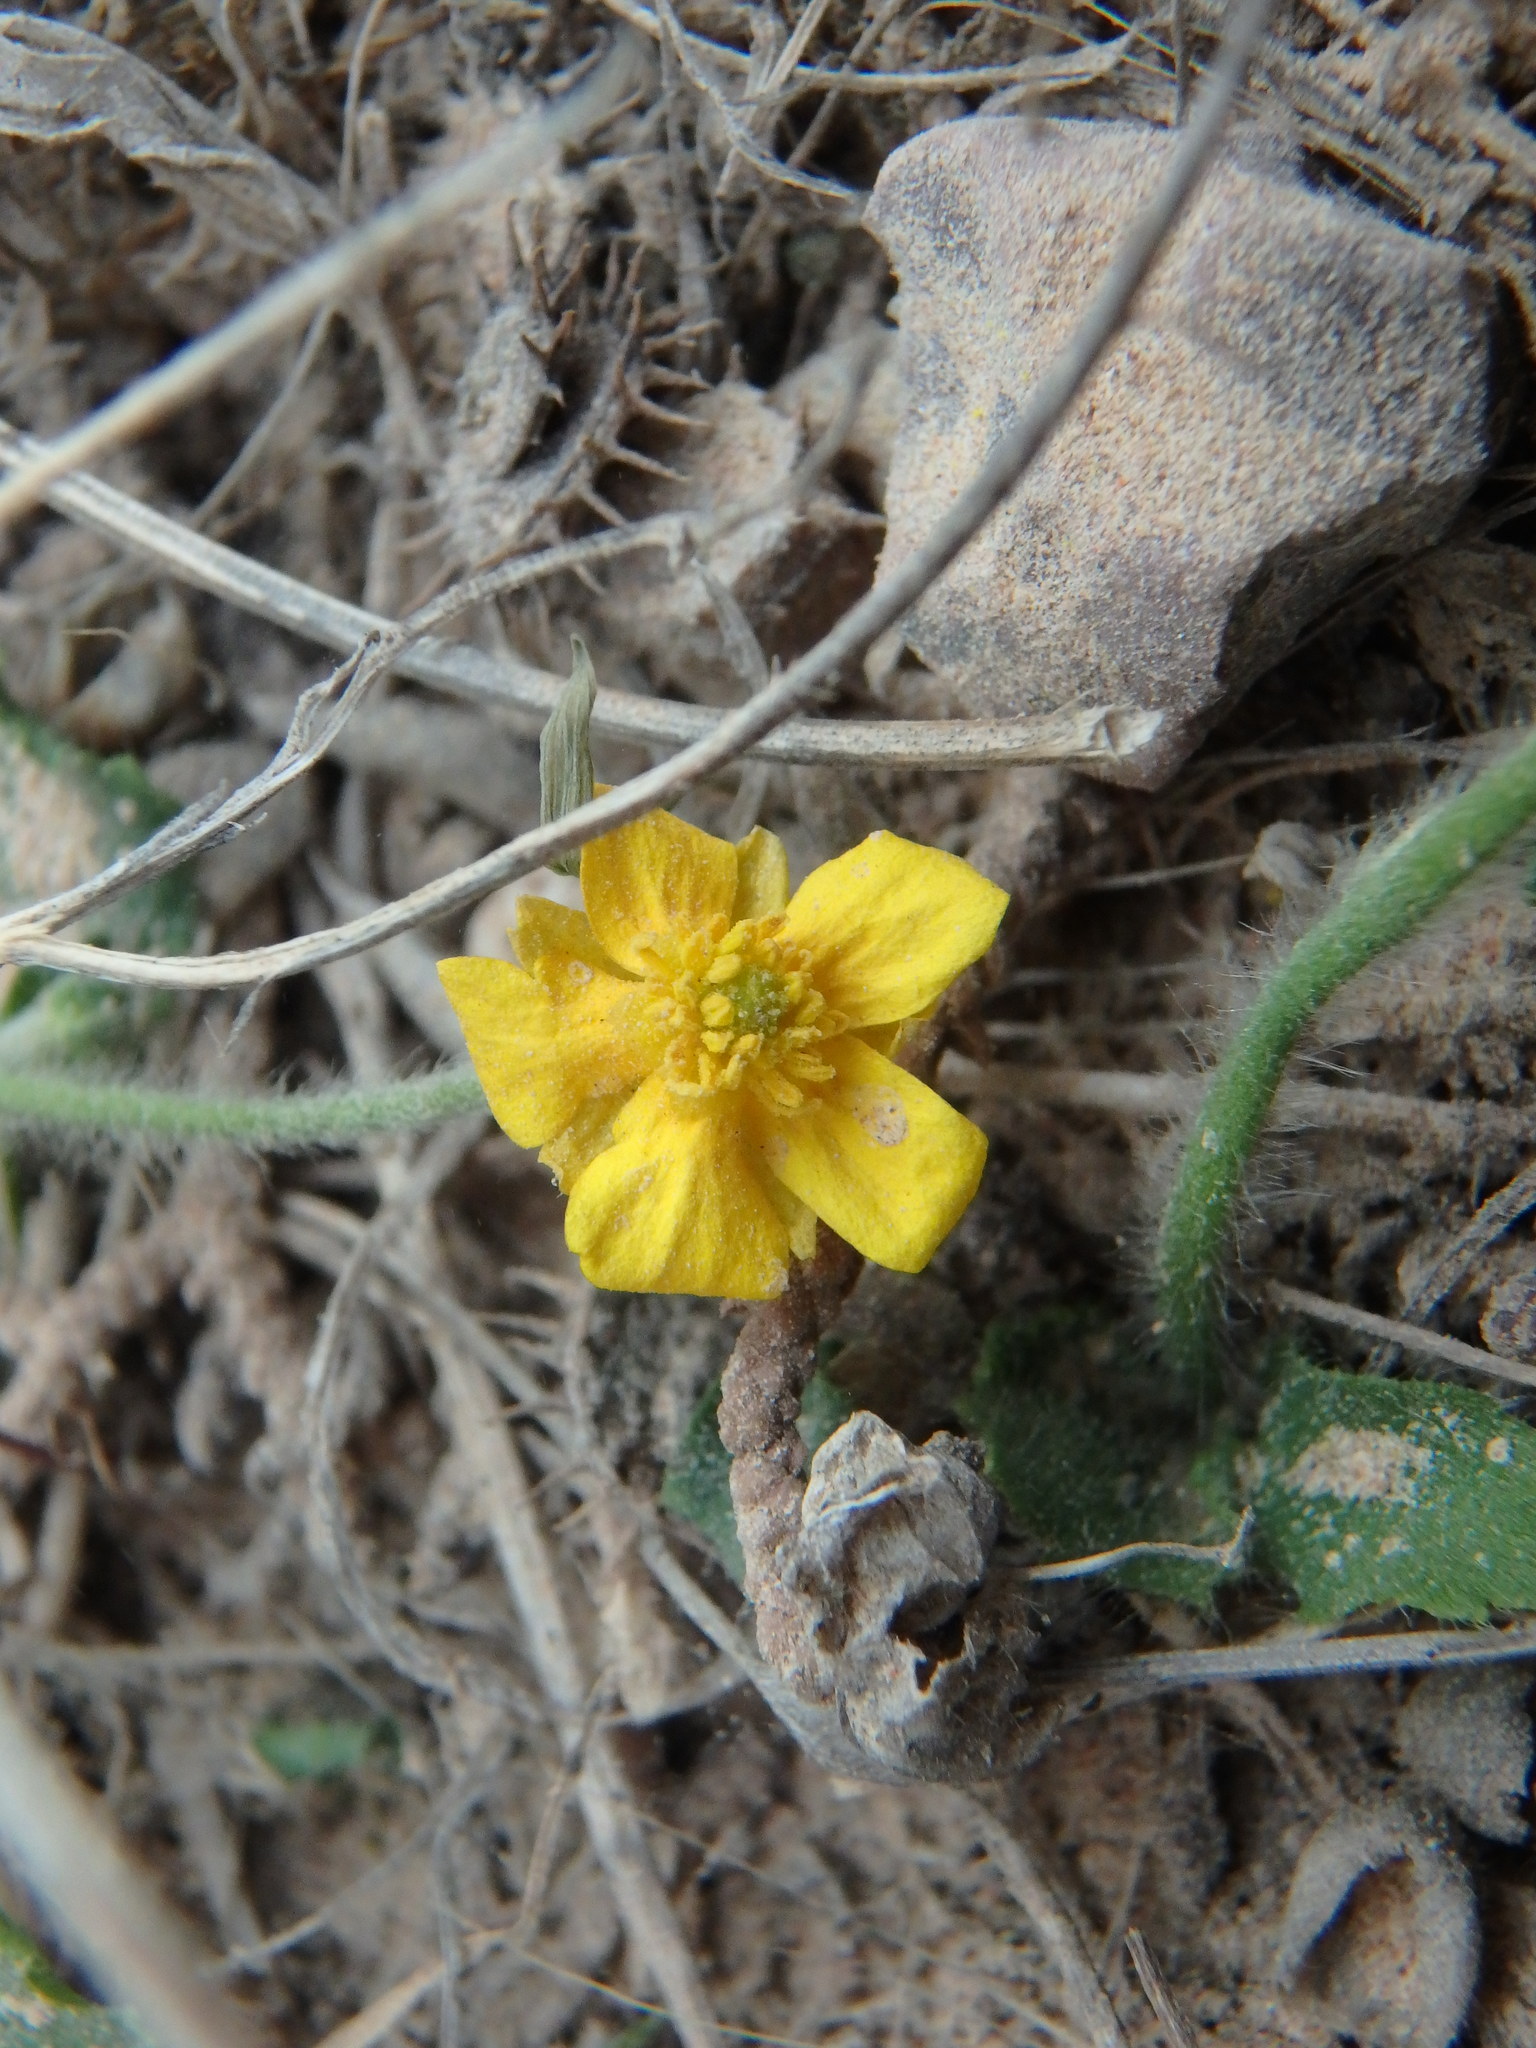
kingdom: Plantae
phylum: Tracheophyta
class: Magnoliopsida
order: Ranunculales
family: Ranunculaceae
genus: Ranunculus
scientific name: Ranunculus bullatus
